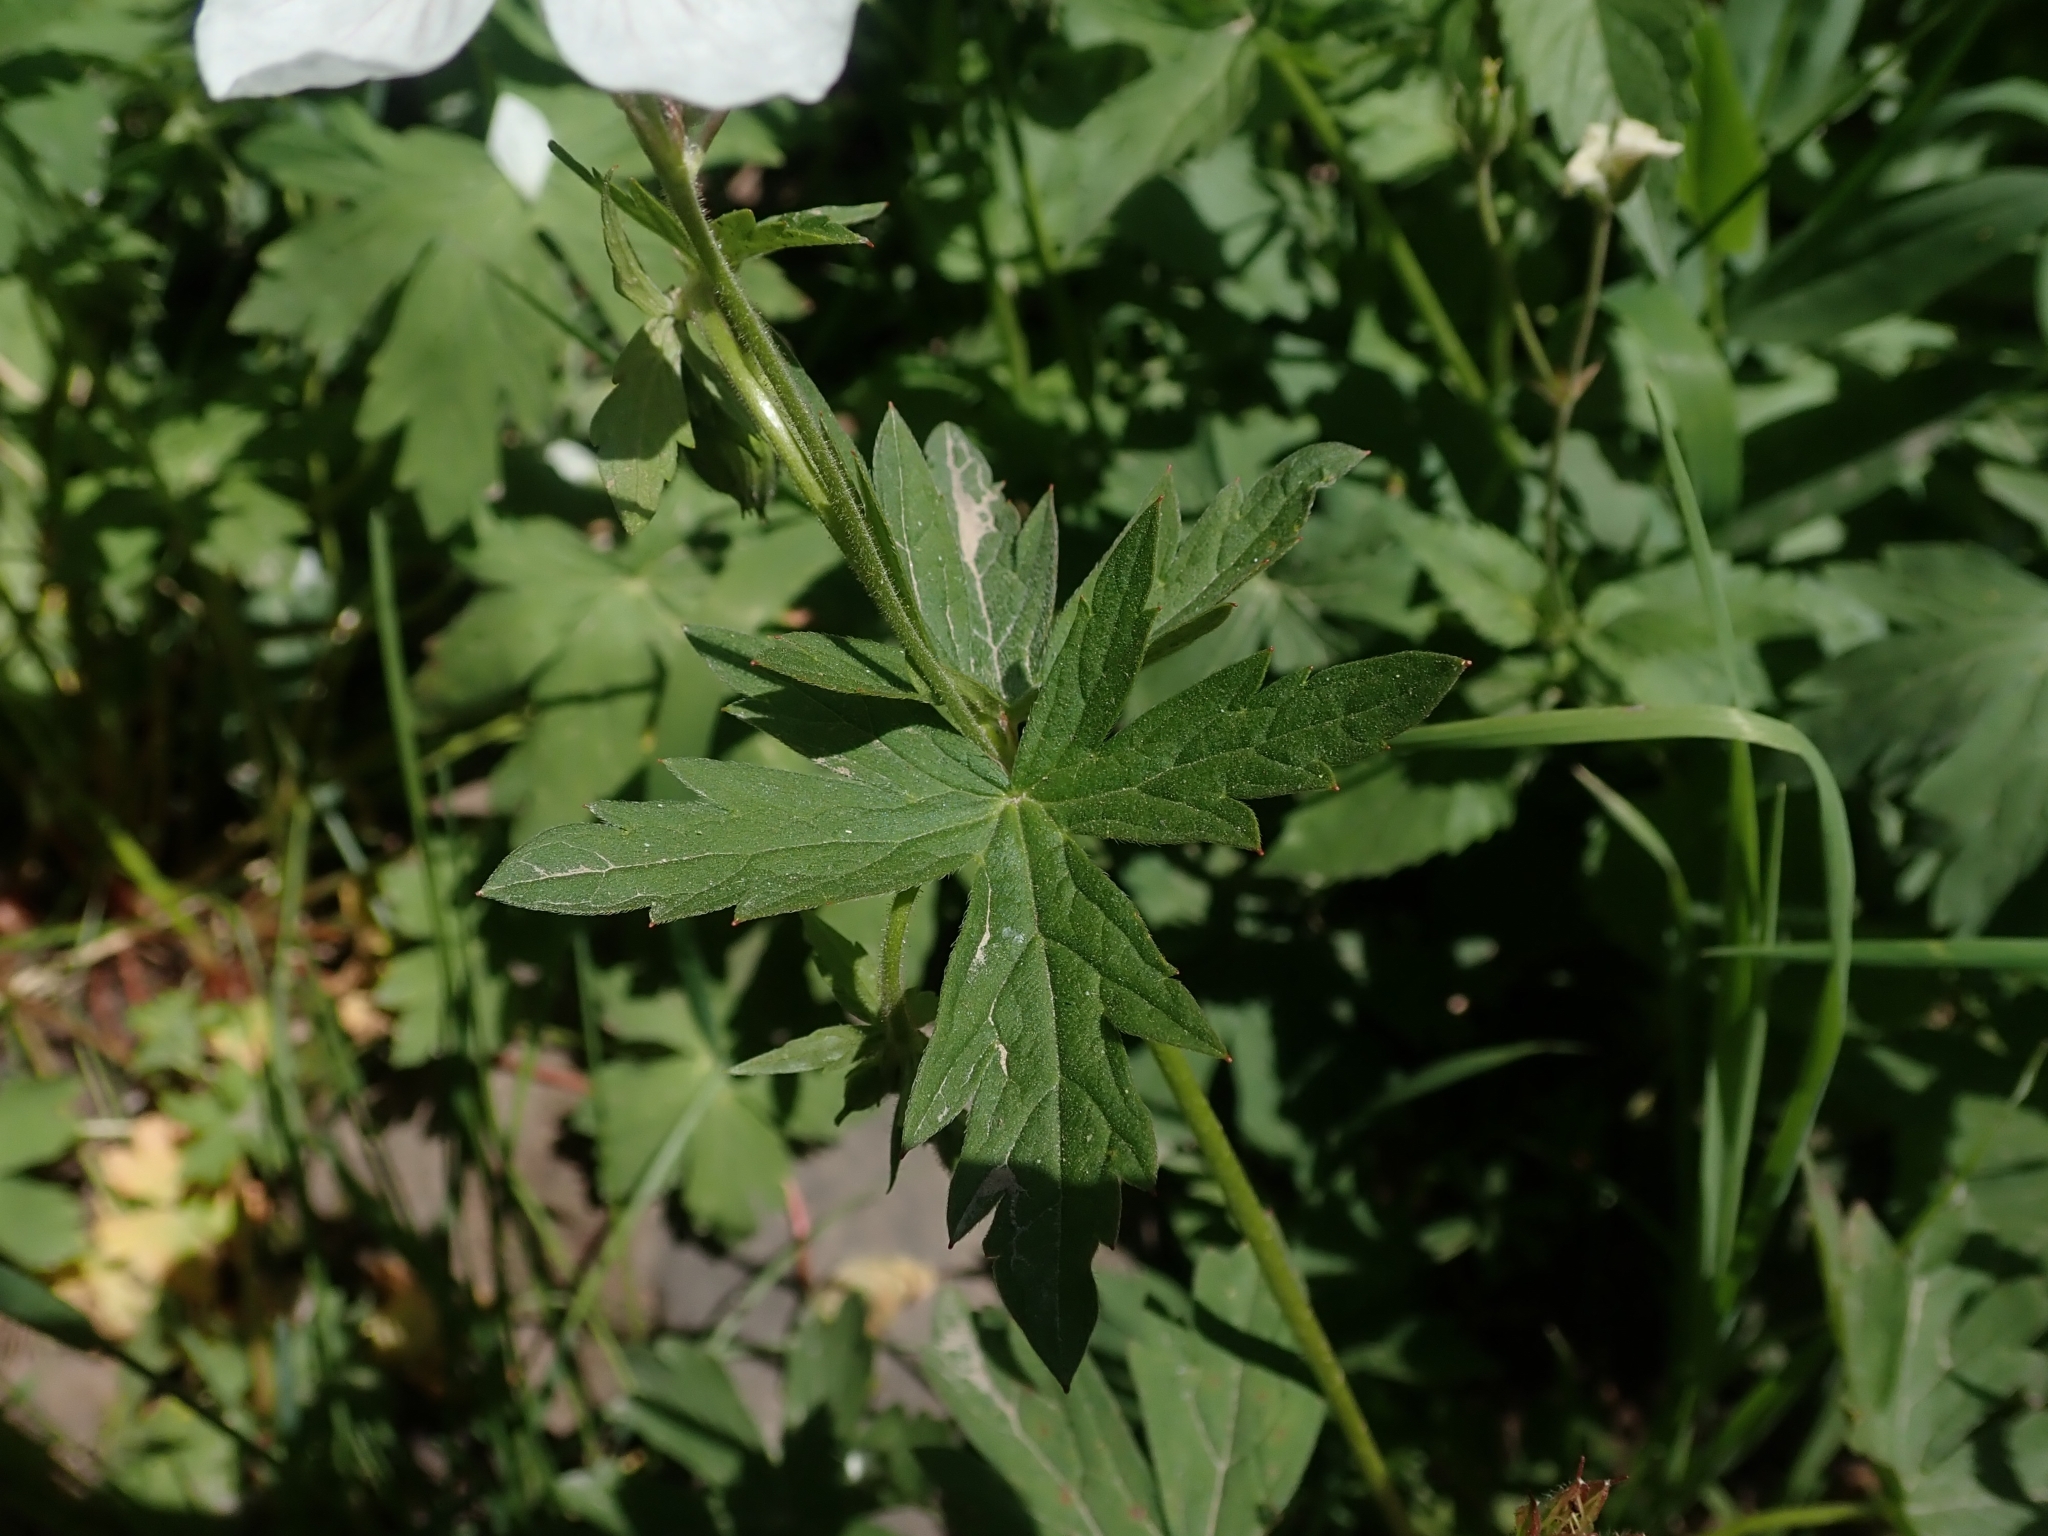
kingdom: Plantae
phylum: Tracheophyta
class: Magnoliopsida
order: Geraniales
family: Geraniaceae
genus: Geranium
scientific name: Geranium richardsonii
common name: Richardson's crane's-bill
